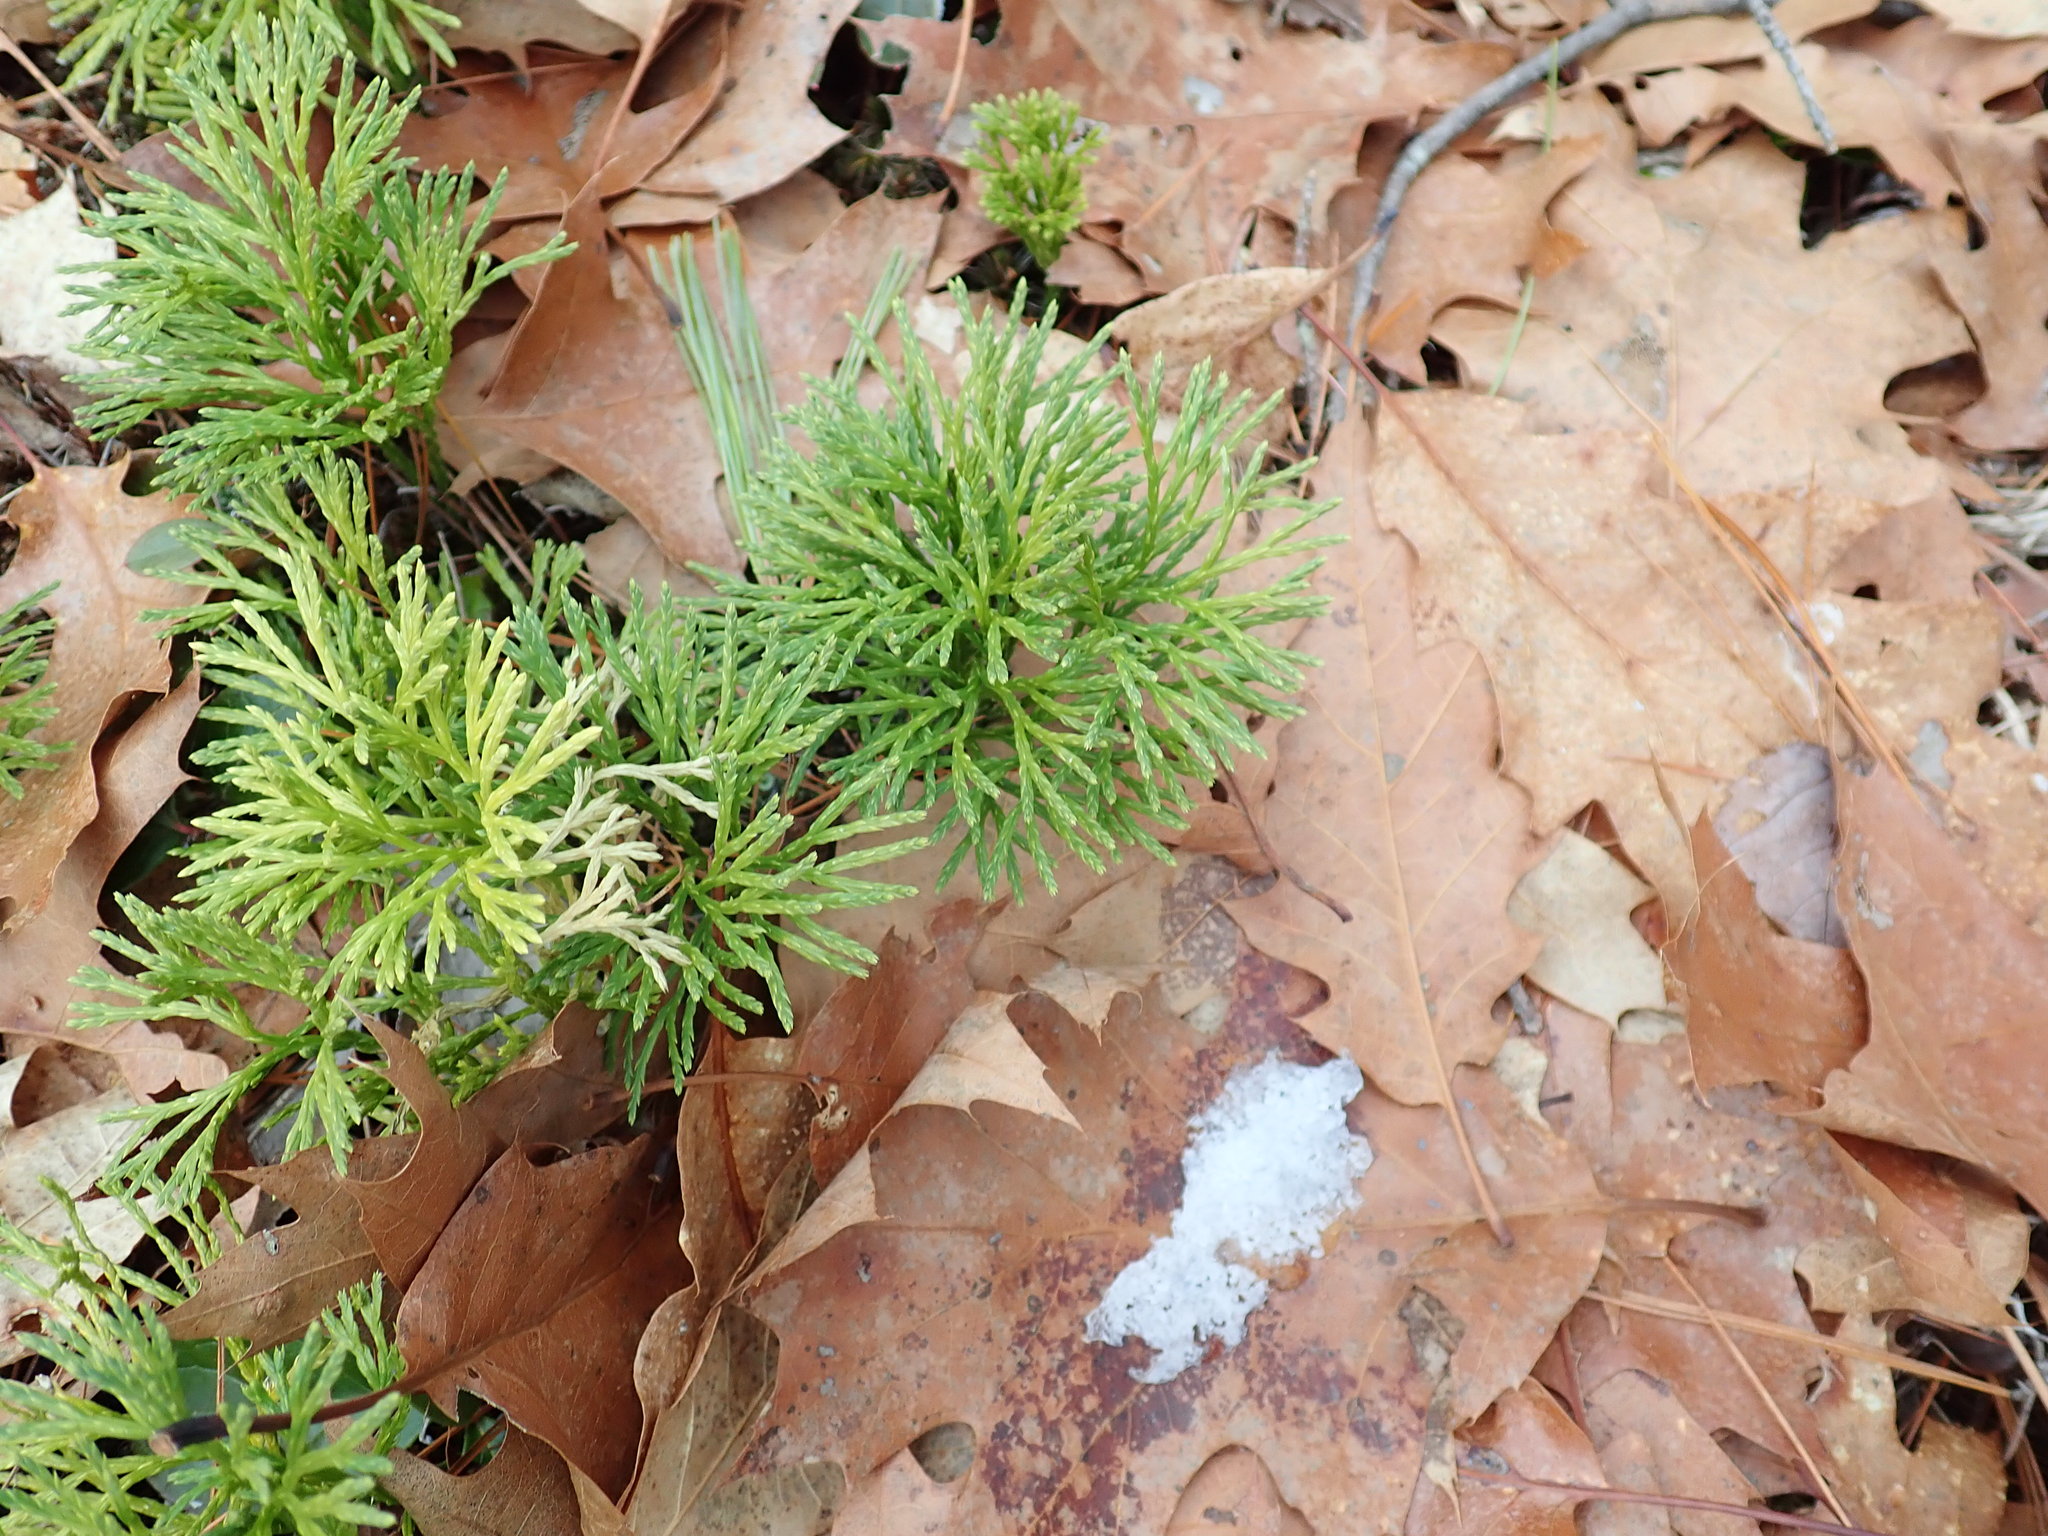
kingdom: Plantae
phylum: Tracheophyta
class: Lycopodiopsida
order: Lycopodiales
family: Lycopodiaceae
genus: Diphasiastrum
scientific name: Diphasiastrum tristachyum
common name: Blue ground-cedar
